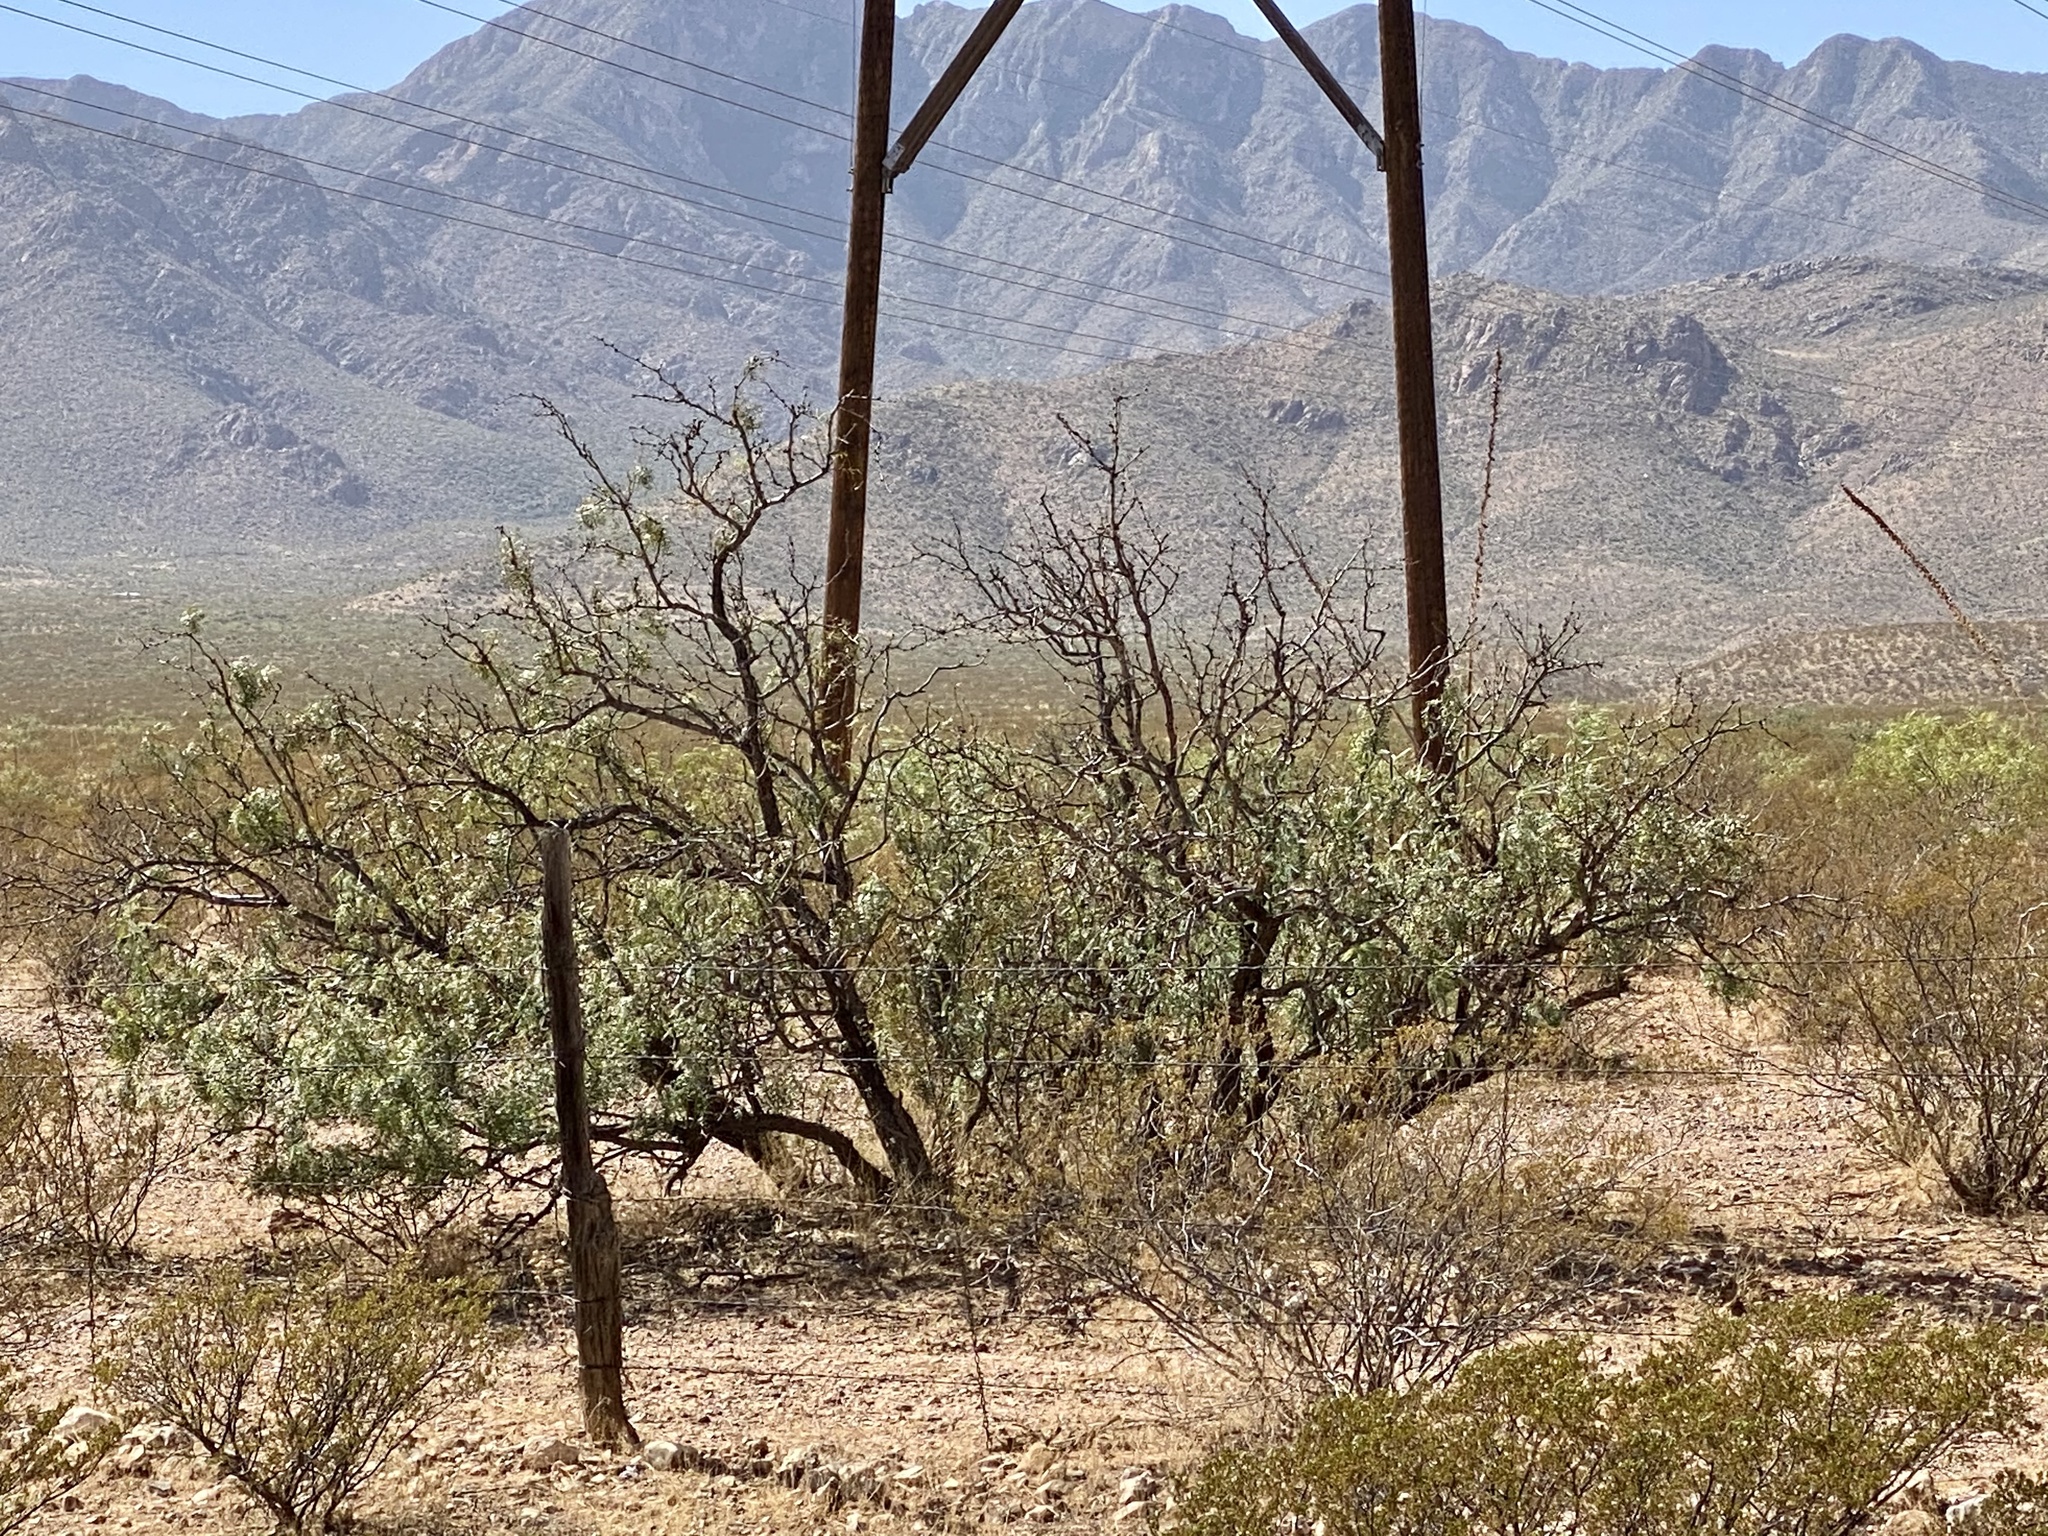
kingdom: Plantae
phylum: Tracheophyta
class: Magnoliopsida
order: Fabales
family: Fabaceae
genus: Prosopis
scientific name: Prosopis glandulosa
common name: Honey mesquite
